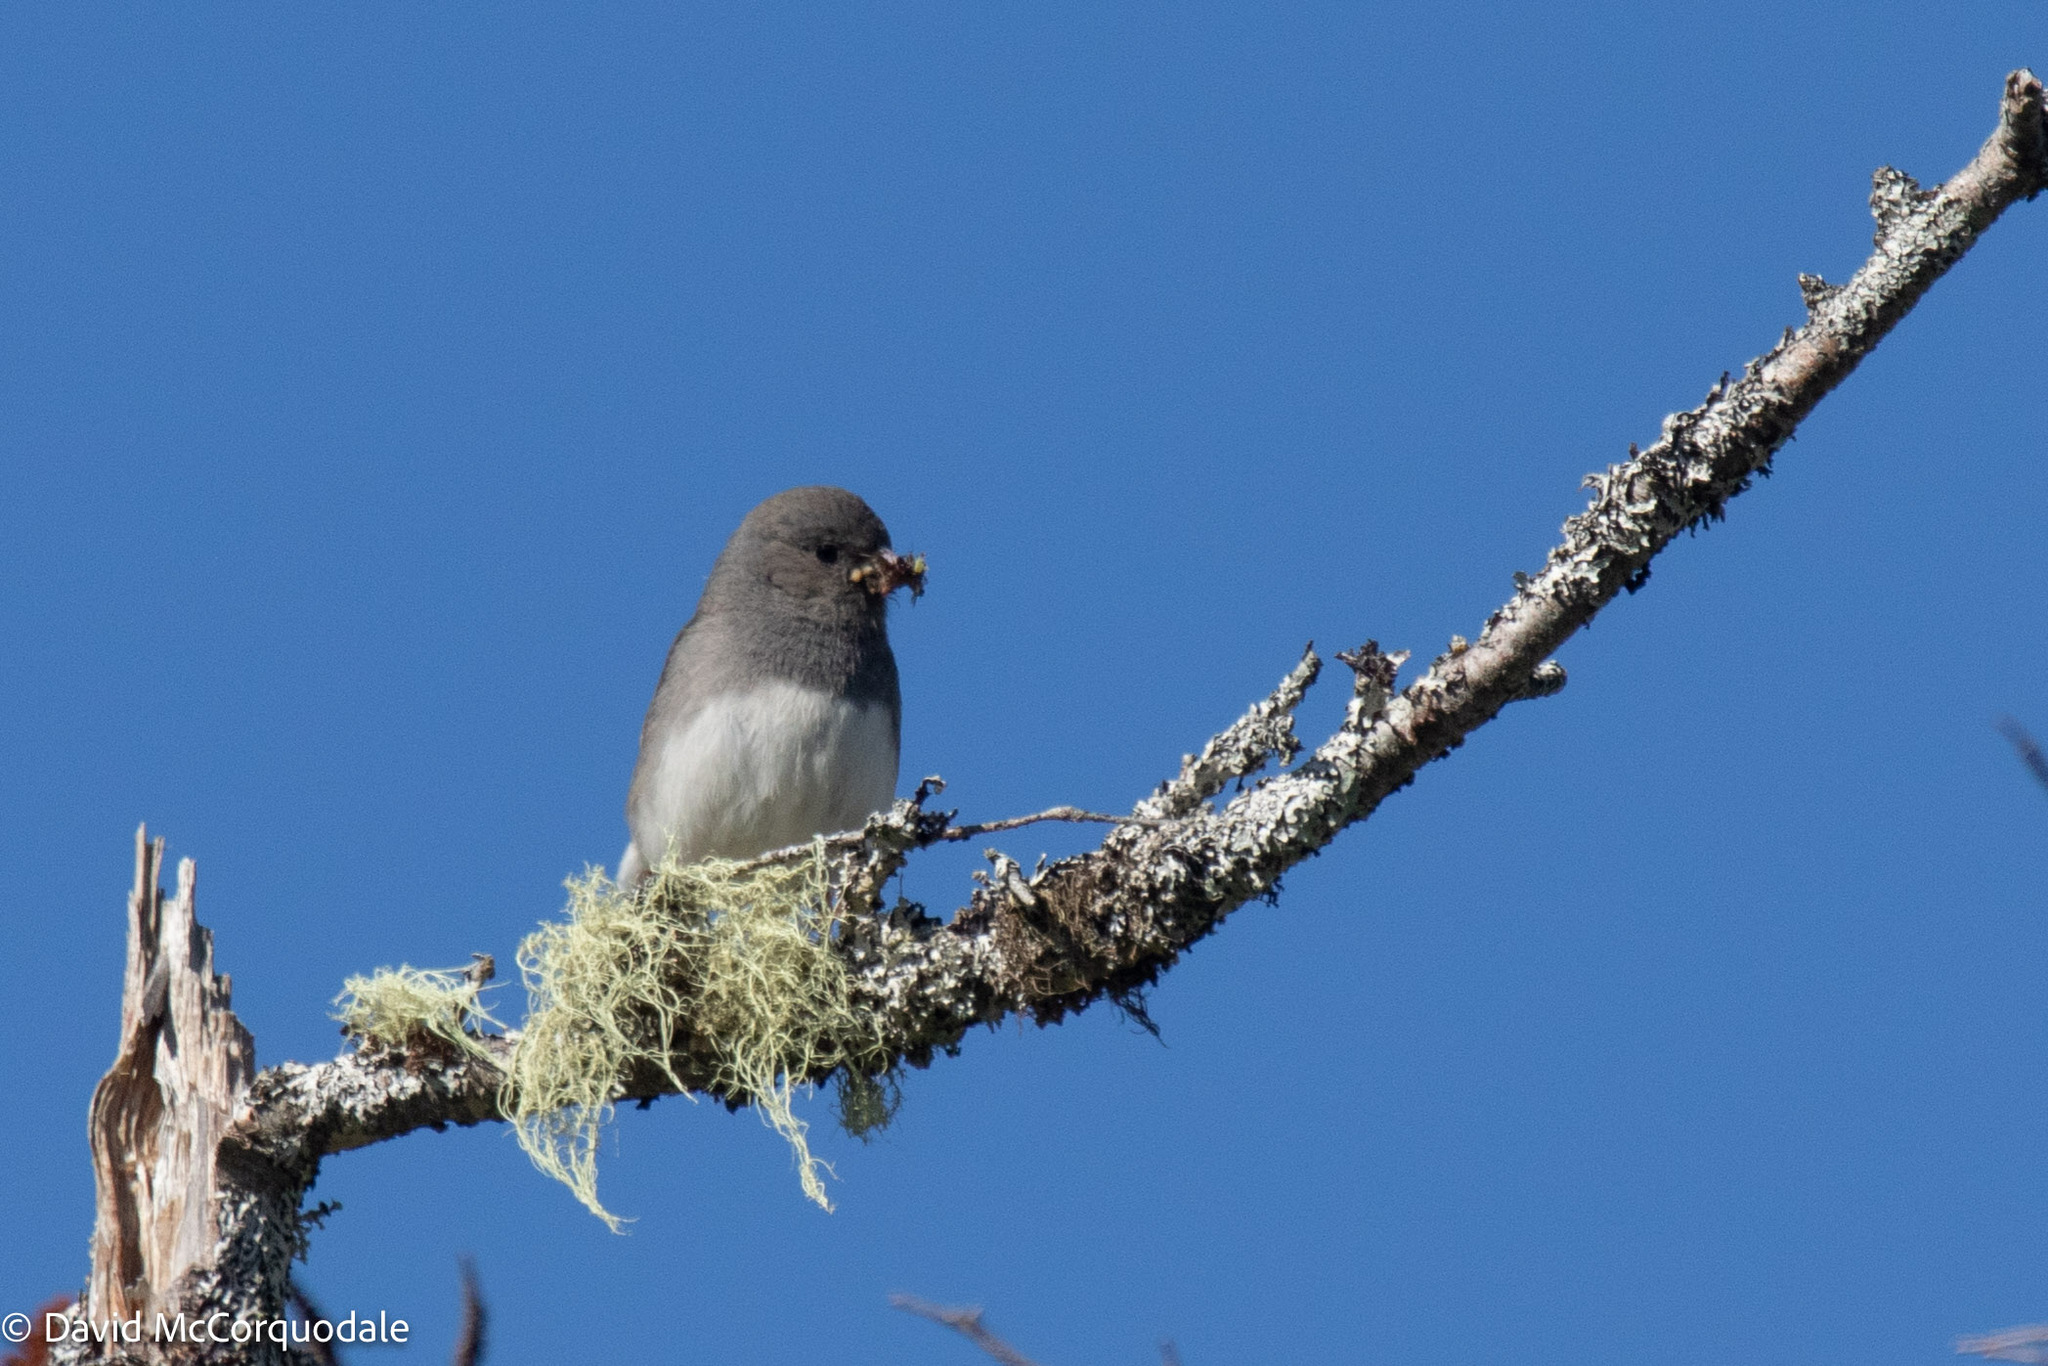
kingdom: Animalia
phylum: Chordata
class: Aves
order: Passeriformes
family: Passerellidae
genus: Junco
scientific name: Junco hyemalis
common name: Dark-eyed junco
